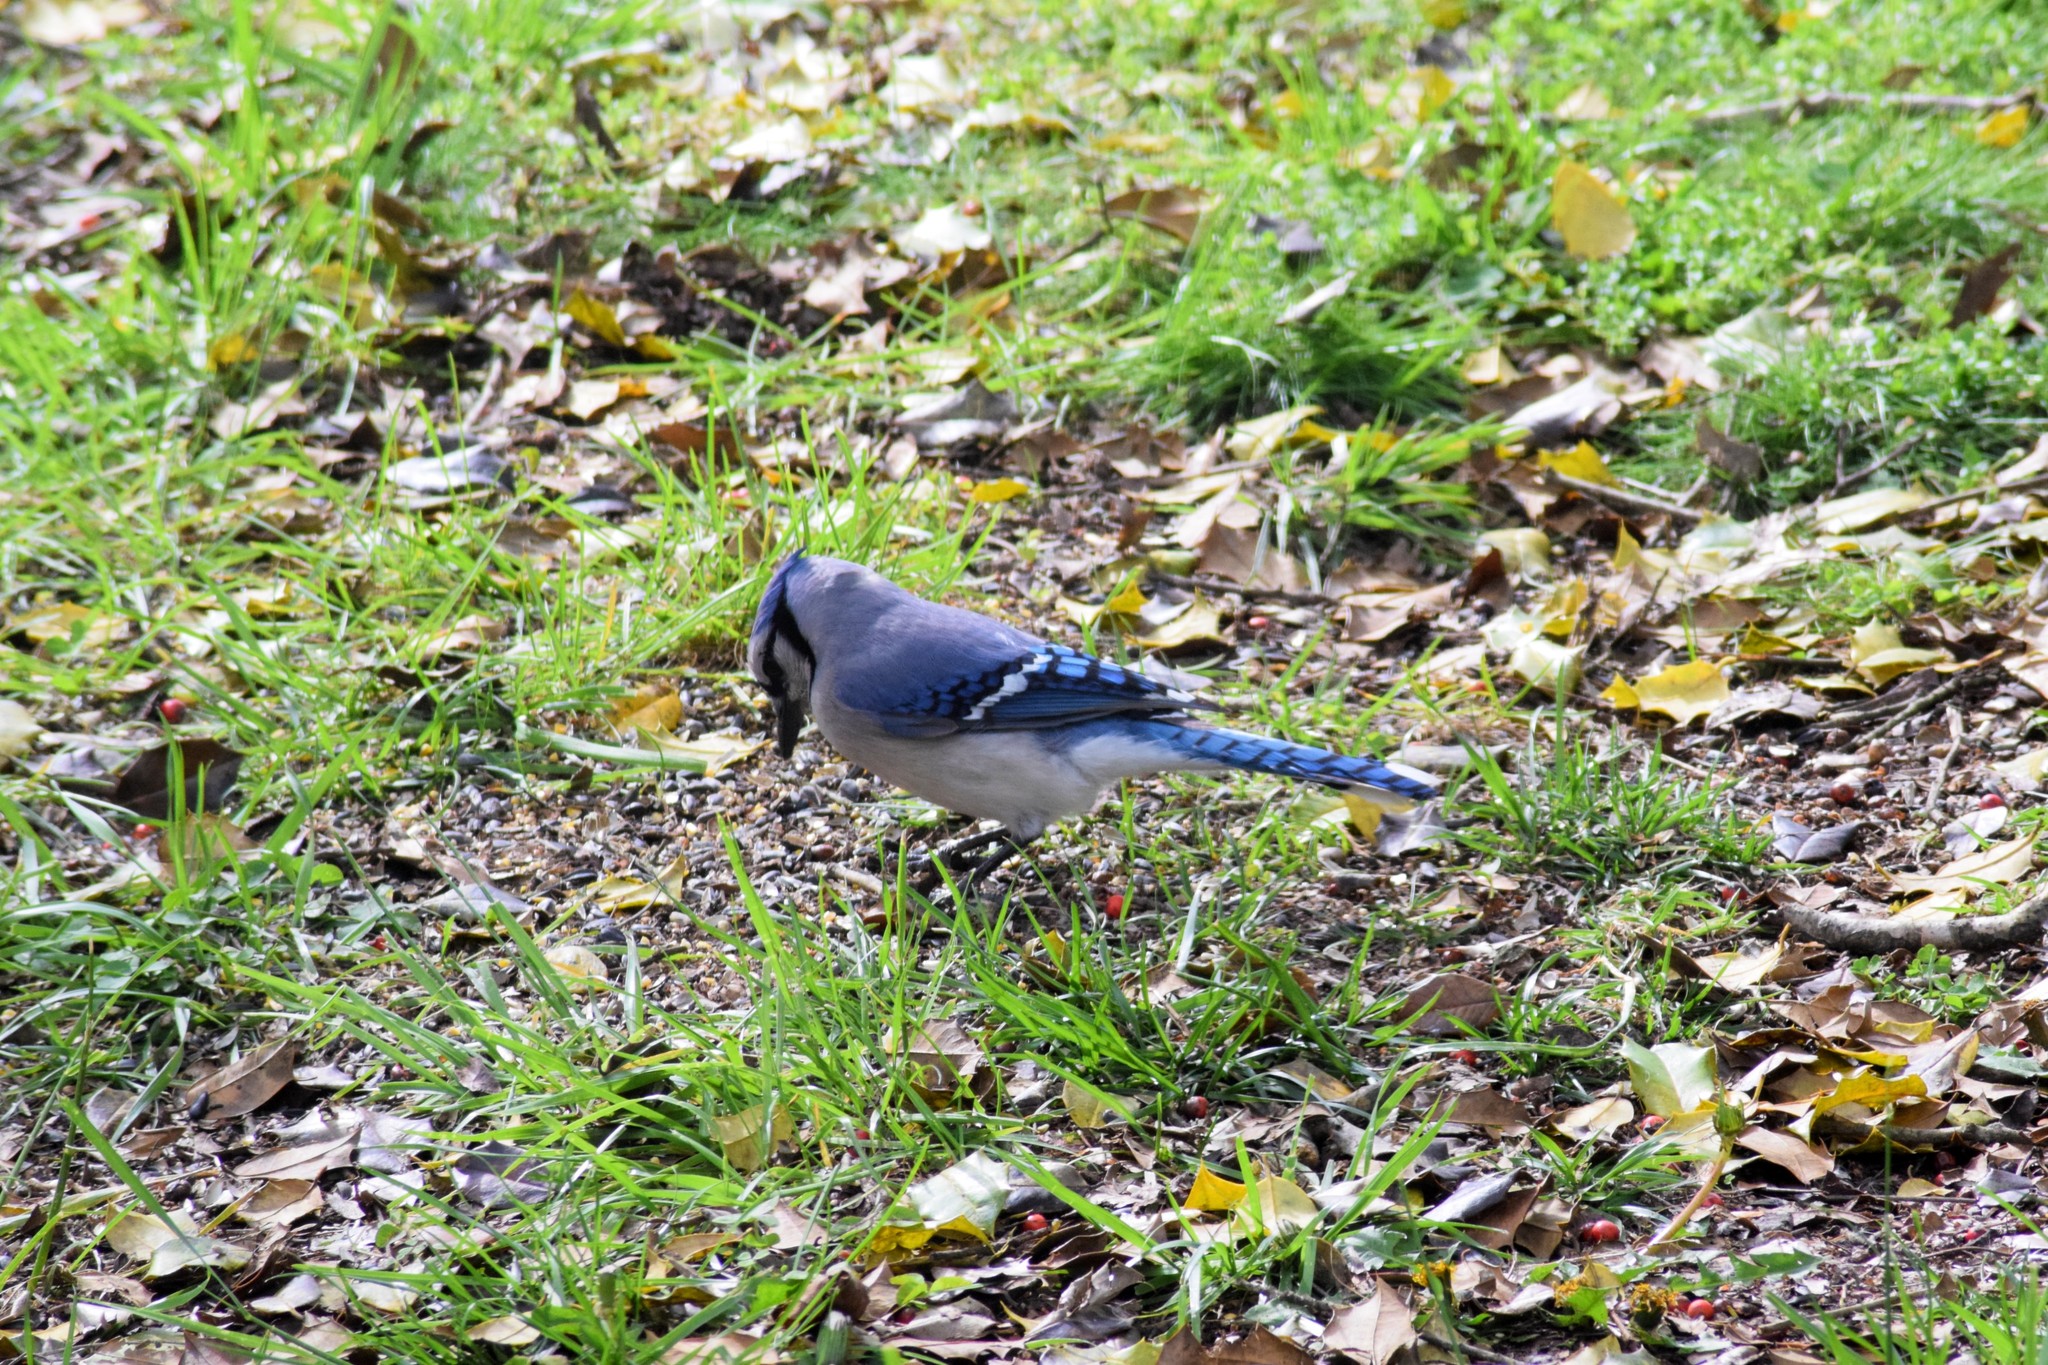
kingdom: Animalia
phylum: Chordata
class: Aves
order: Passeriformes
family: Corvidae
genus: Cyanocitta
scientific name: Cyanocitta cristata
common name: Blue jay
